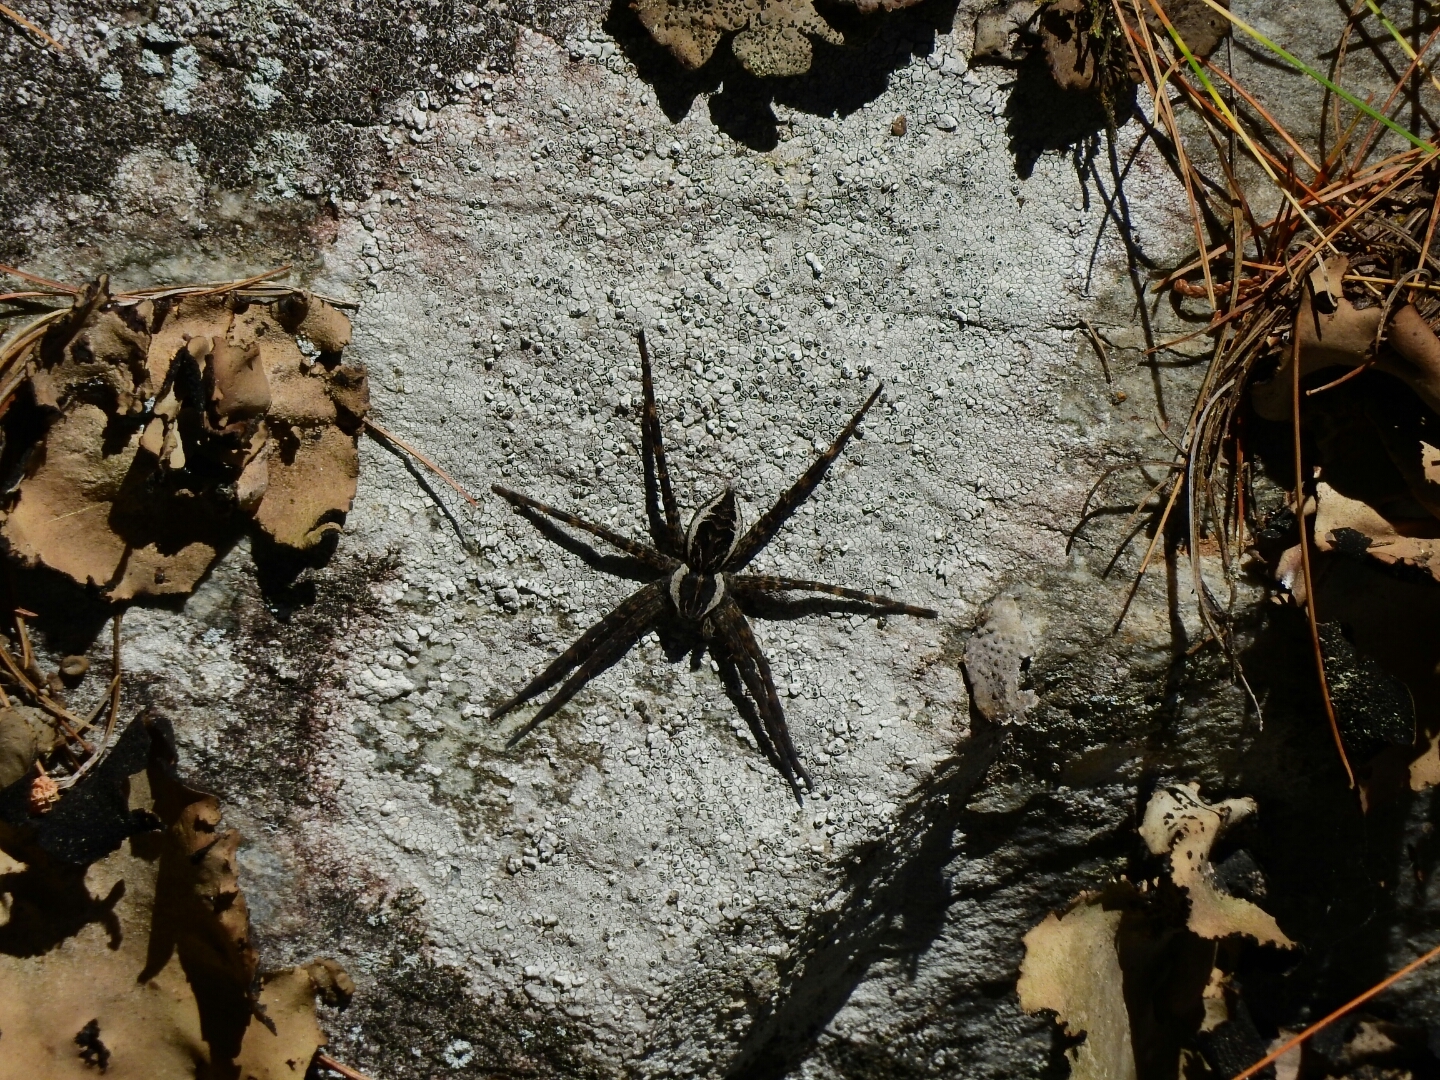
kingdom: Animalia
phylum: Arthropoda
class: Arachnida
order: Araneae
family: Pisauridae
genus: Dolomedes
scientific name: Dolomedes scriptus
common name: Striped fishing spider
